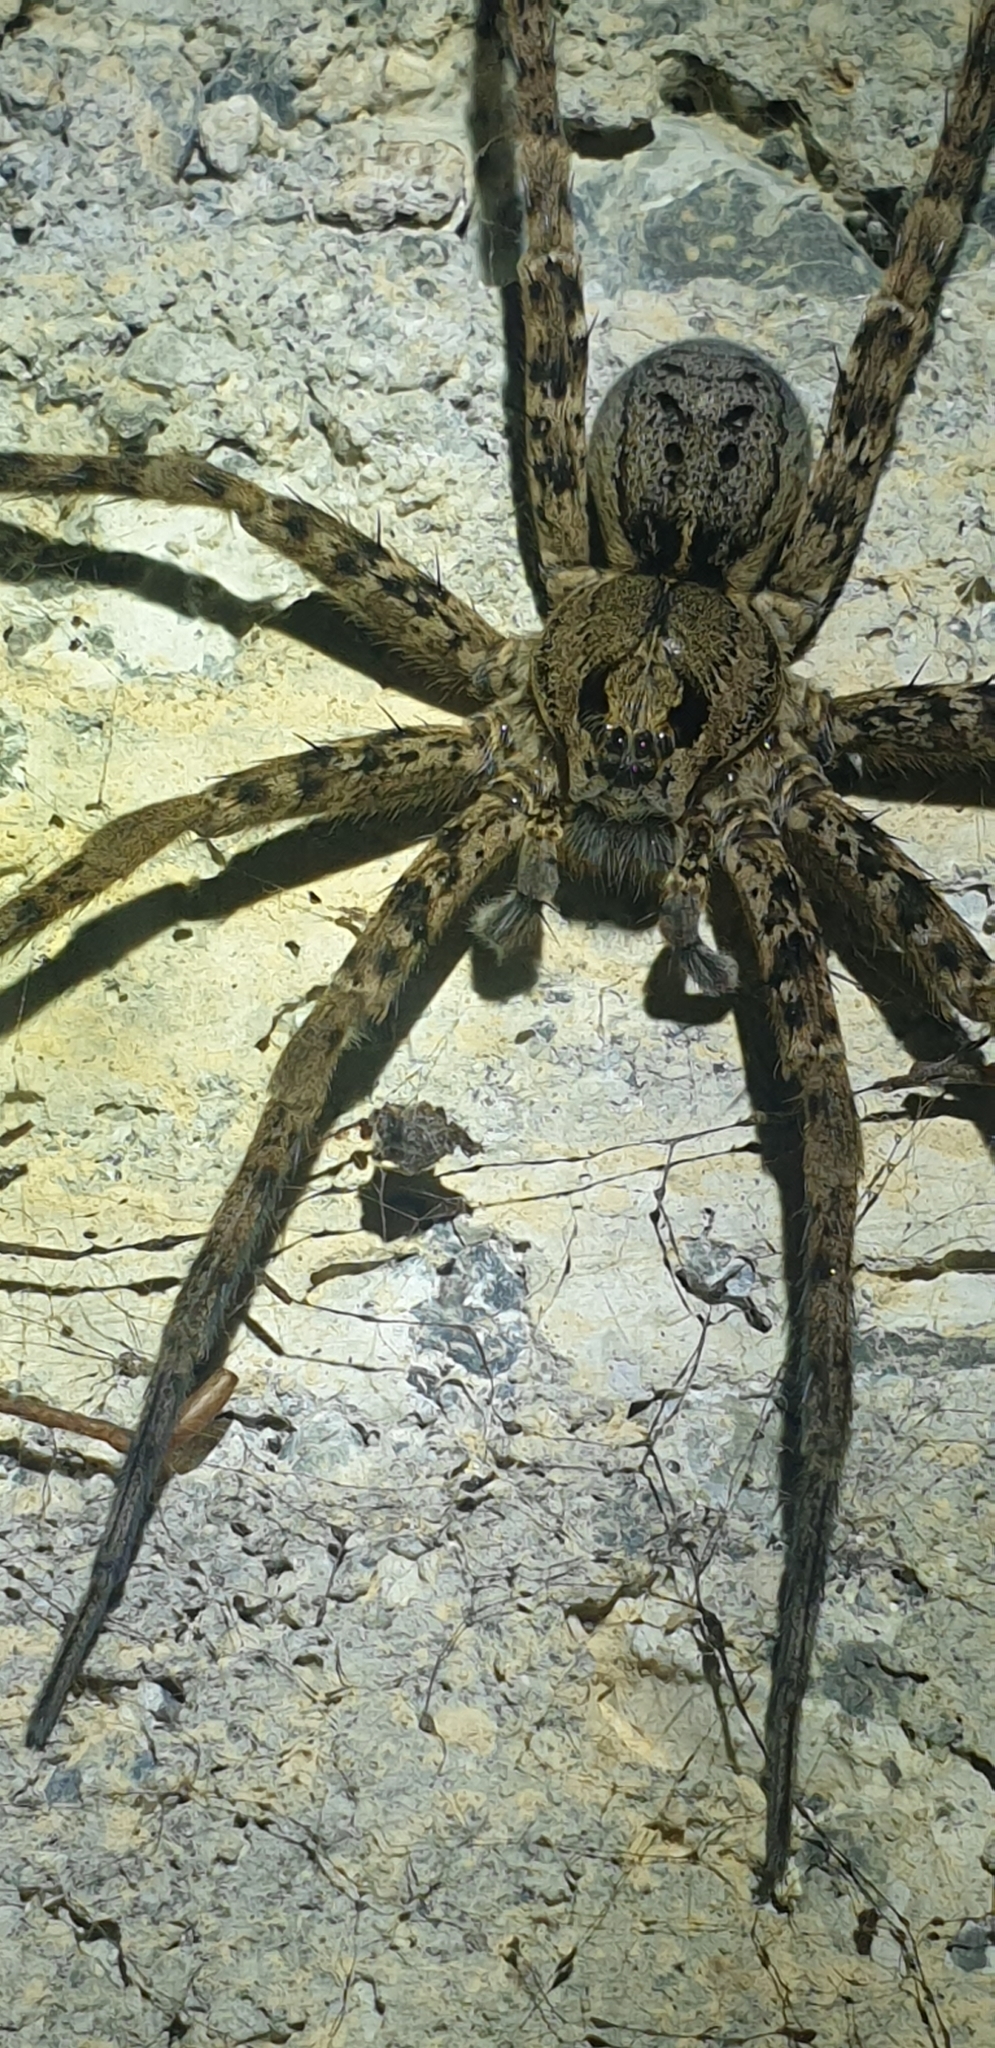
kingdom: Animalia
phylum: Arthropoda
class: Arachnida
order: Araneae
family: Pisauridae
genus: Dolomedes
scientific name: Dolomedes dondalei
